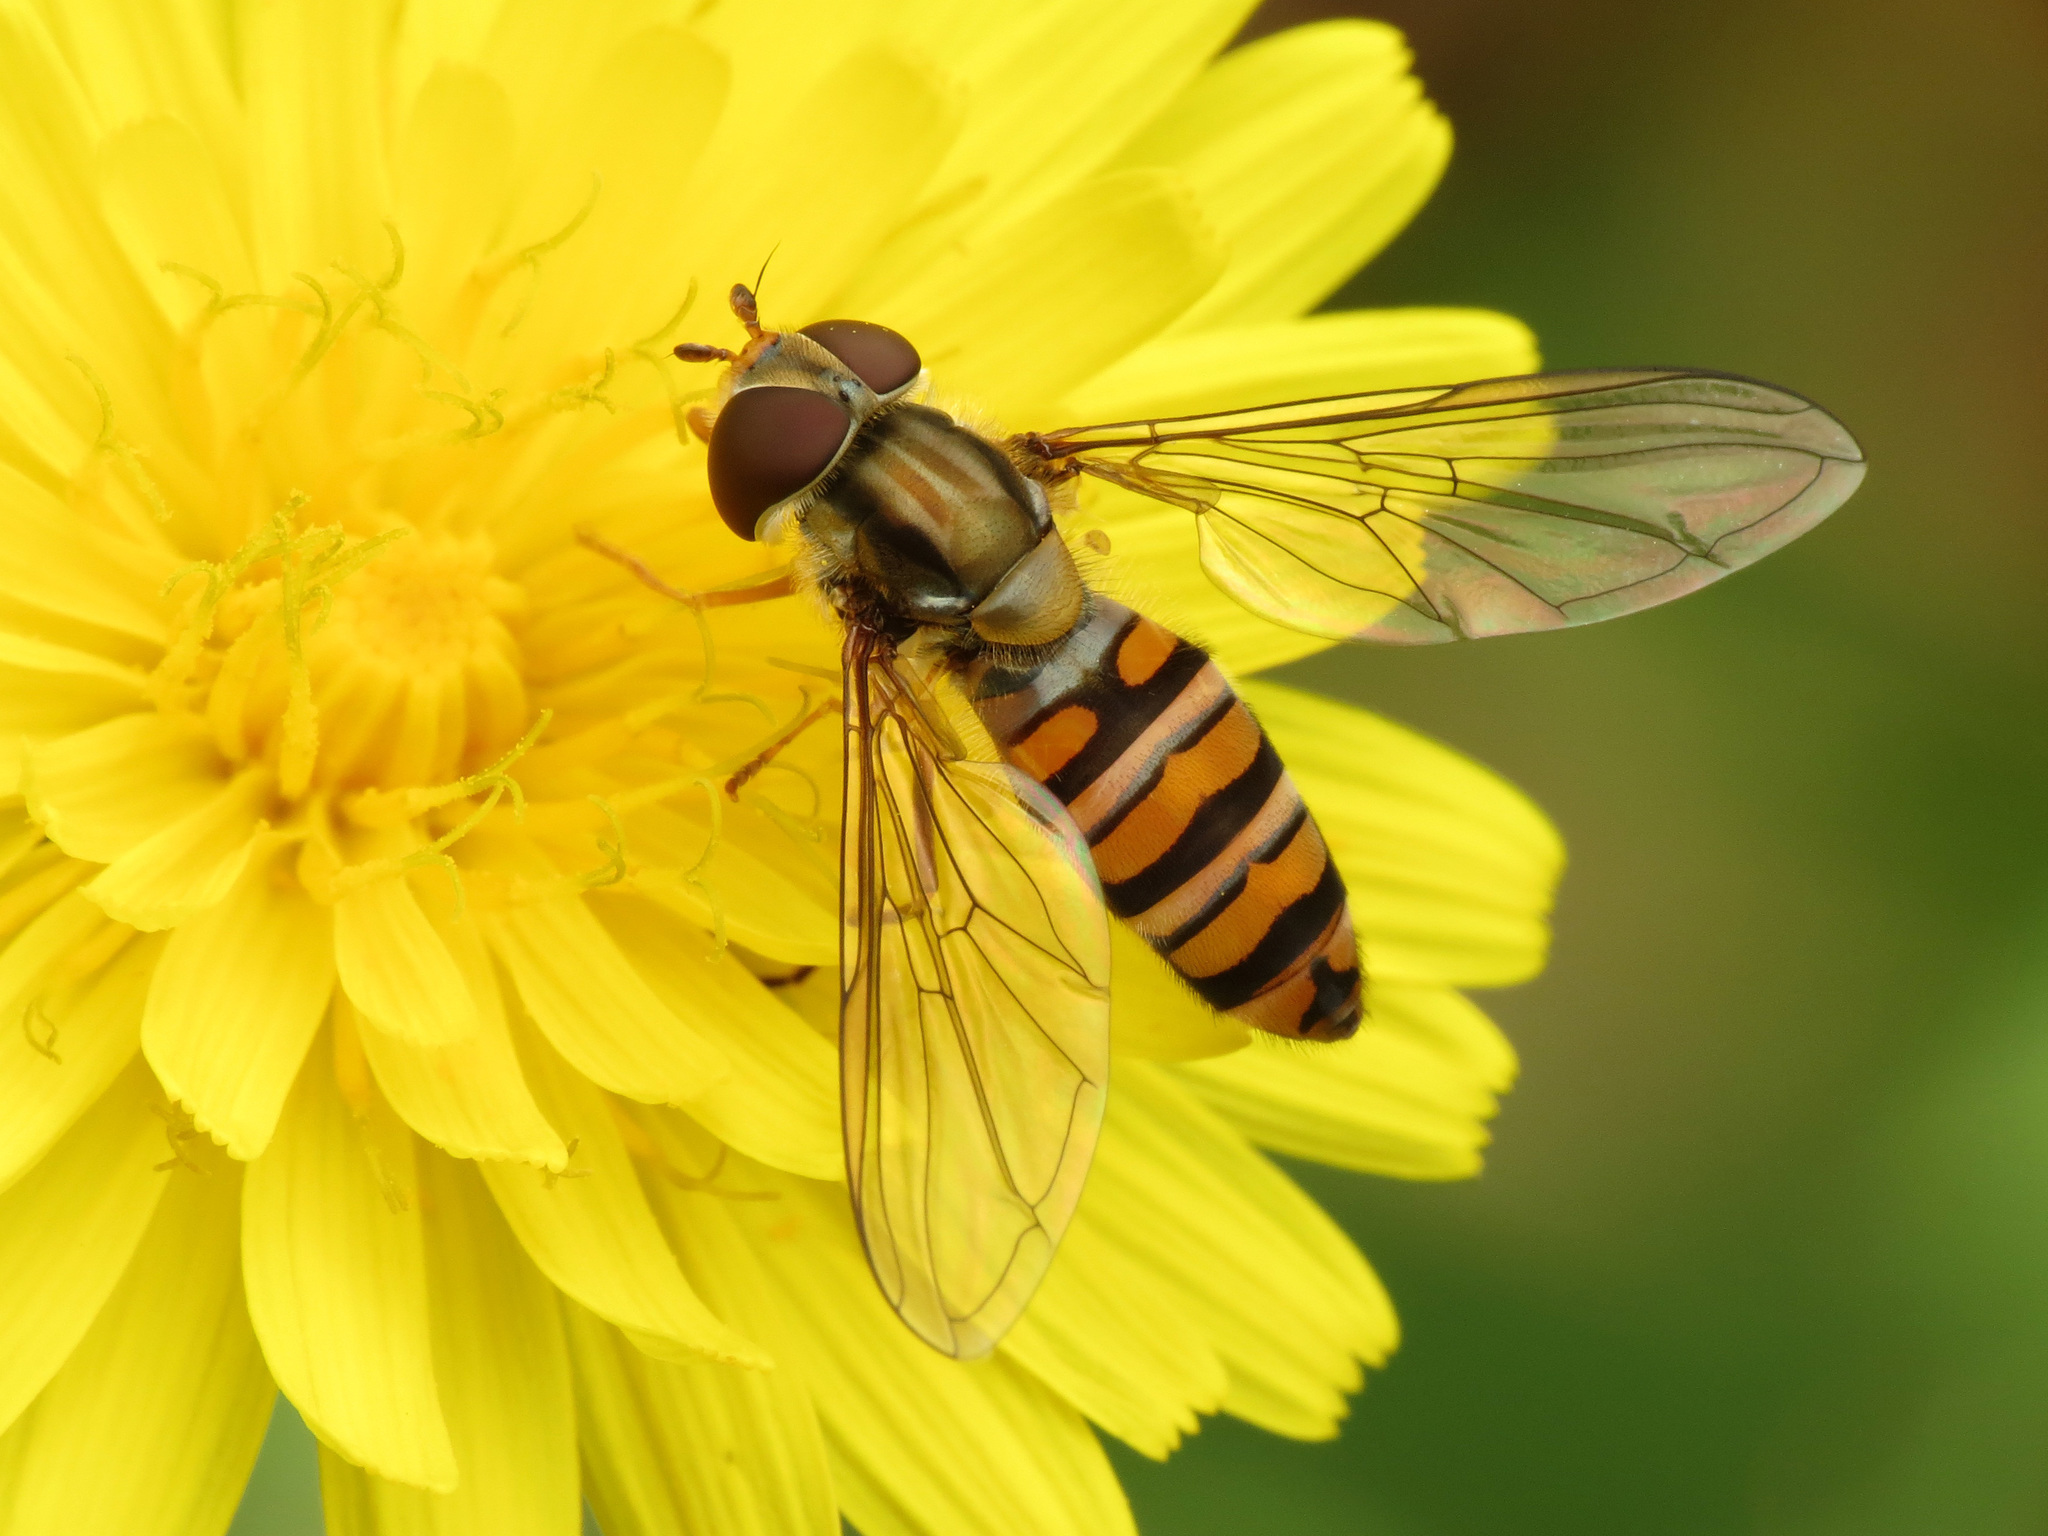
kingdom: Animalia
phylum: Arthropoda
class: Insecta
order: Diptera
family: Syrphidae
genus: Episyrphus
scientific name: Episyrphus balteatus
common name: Marmalade hoverfly
